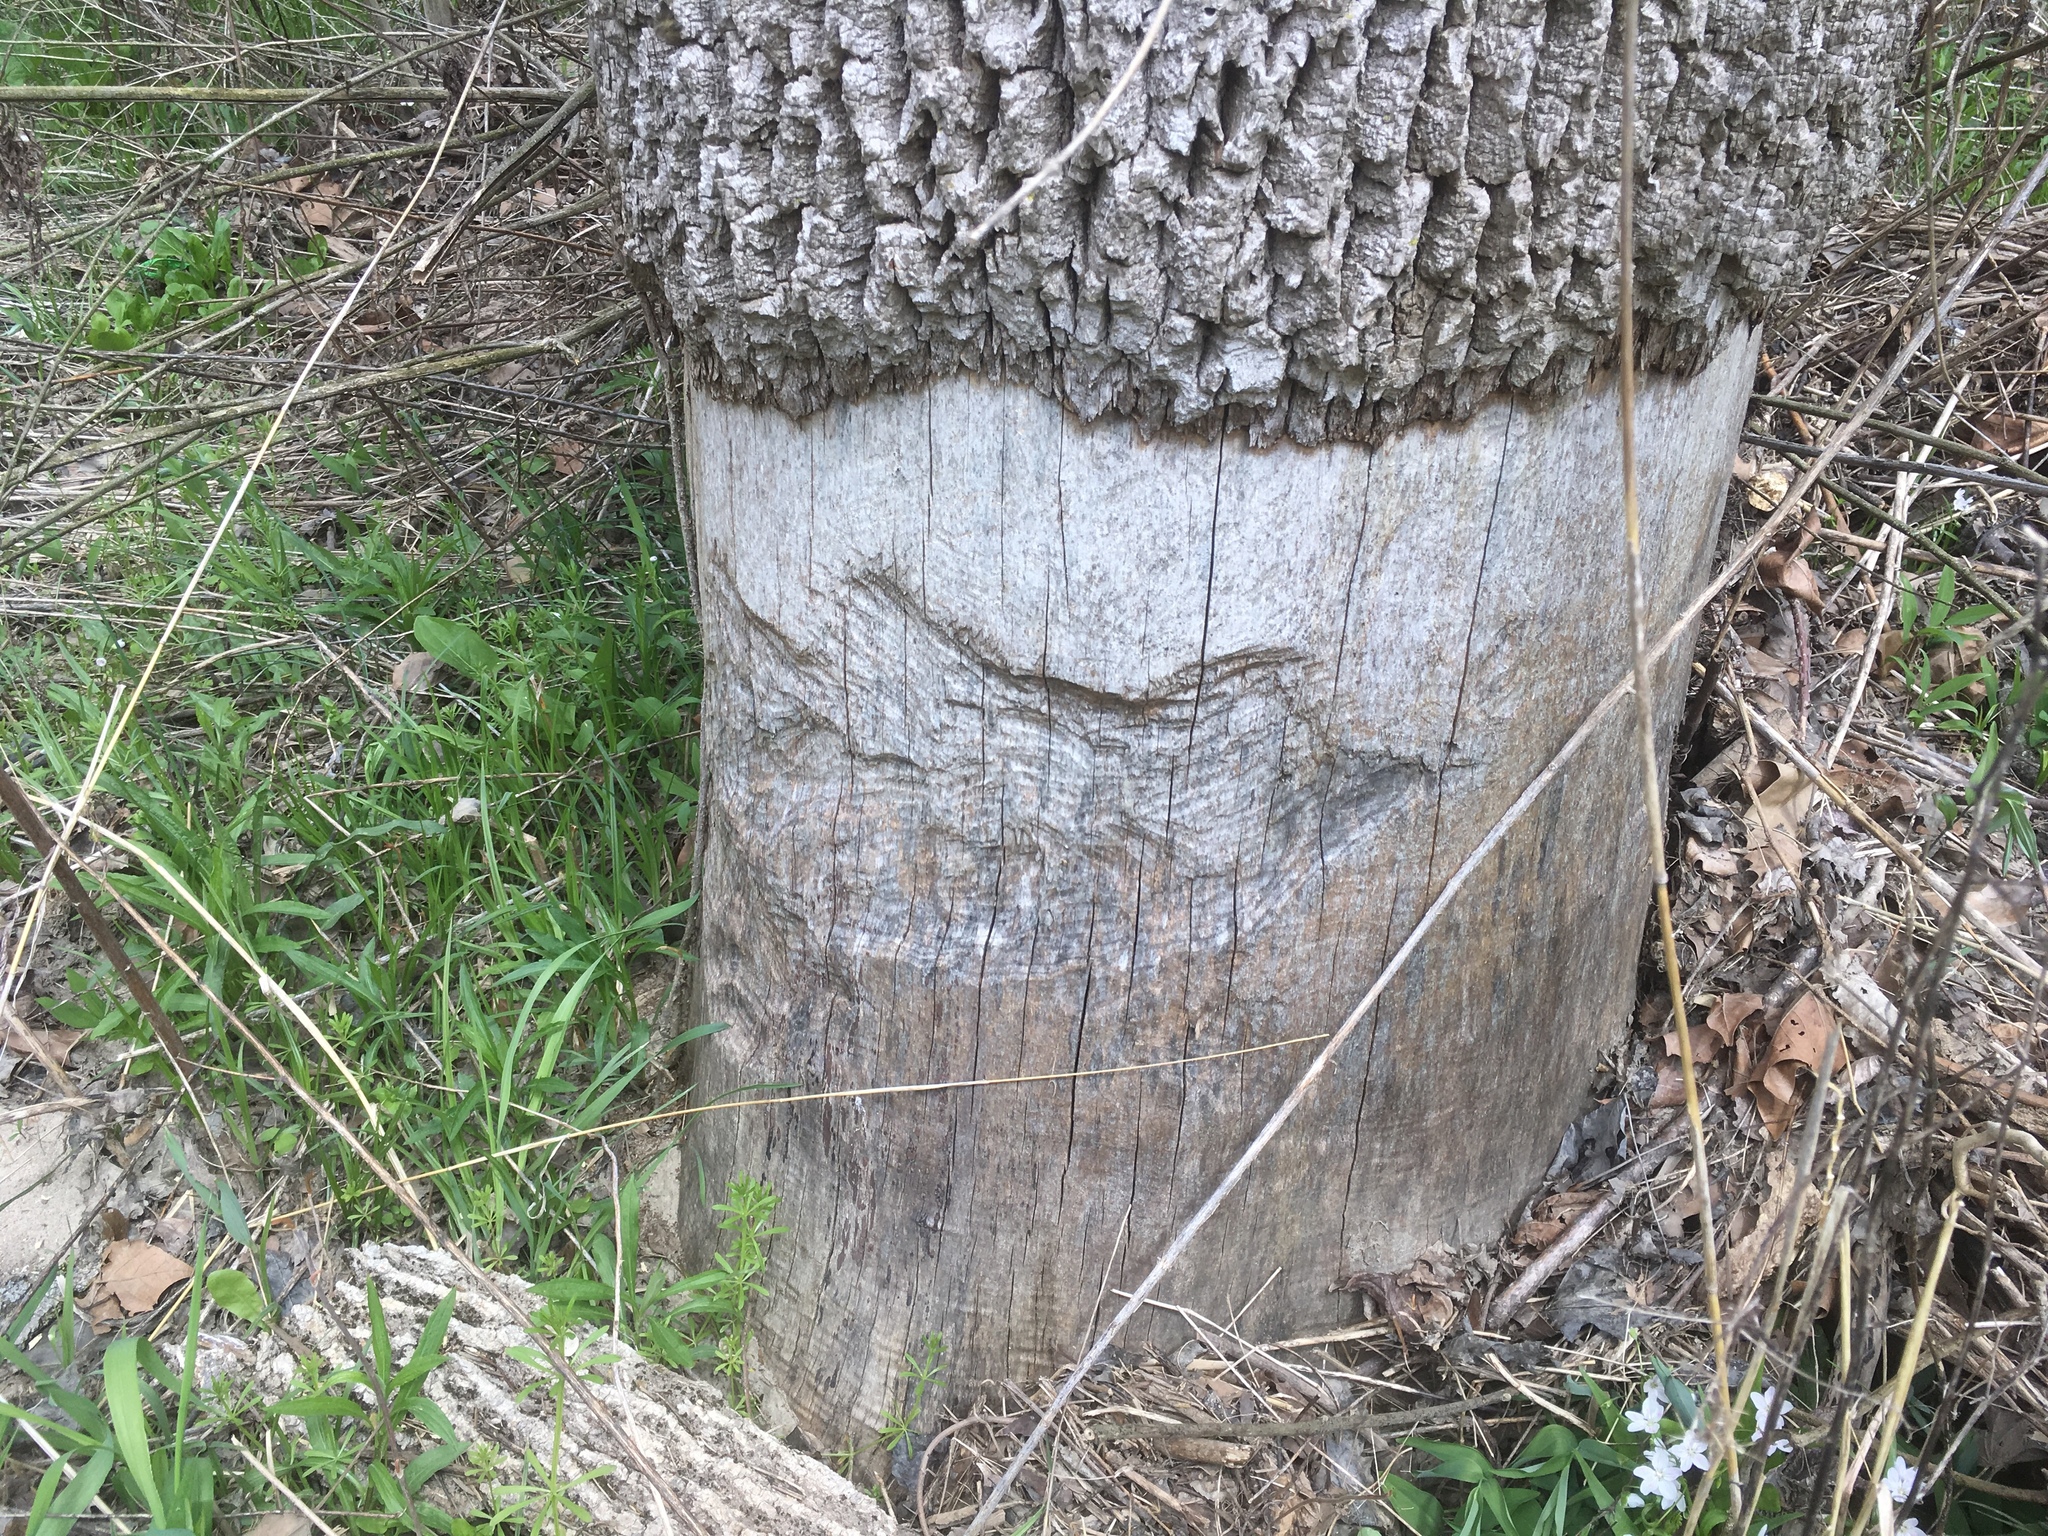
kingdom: Animalia
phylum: Chordata
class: Mammalia
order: Rodentia
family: Castoridae
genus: Castor
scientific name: Castor canadensis
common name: American beaver
